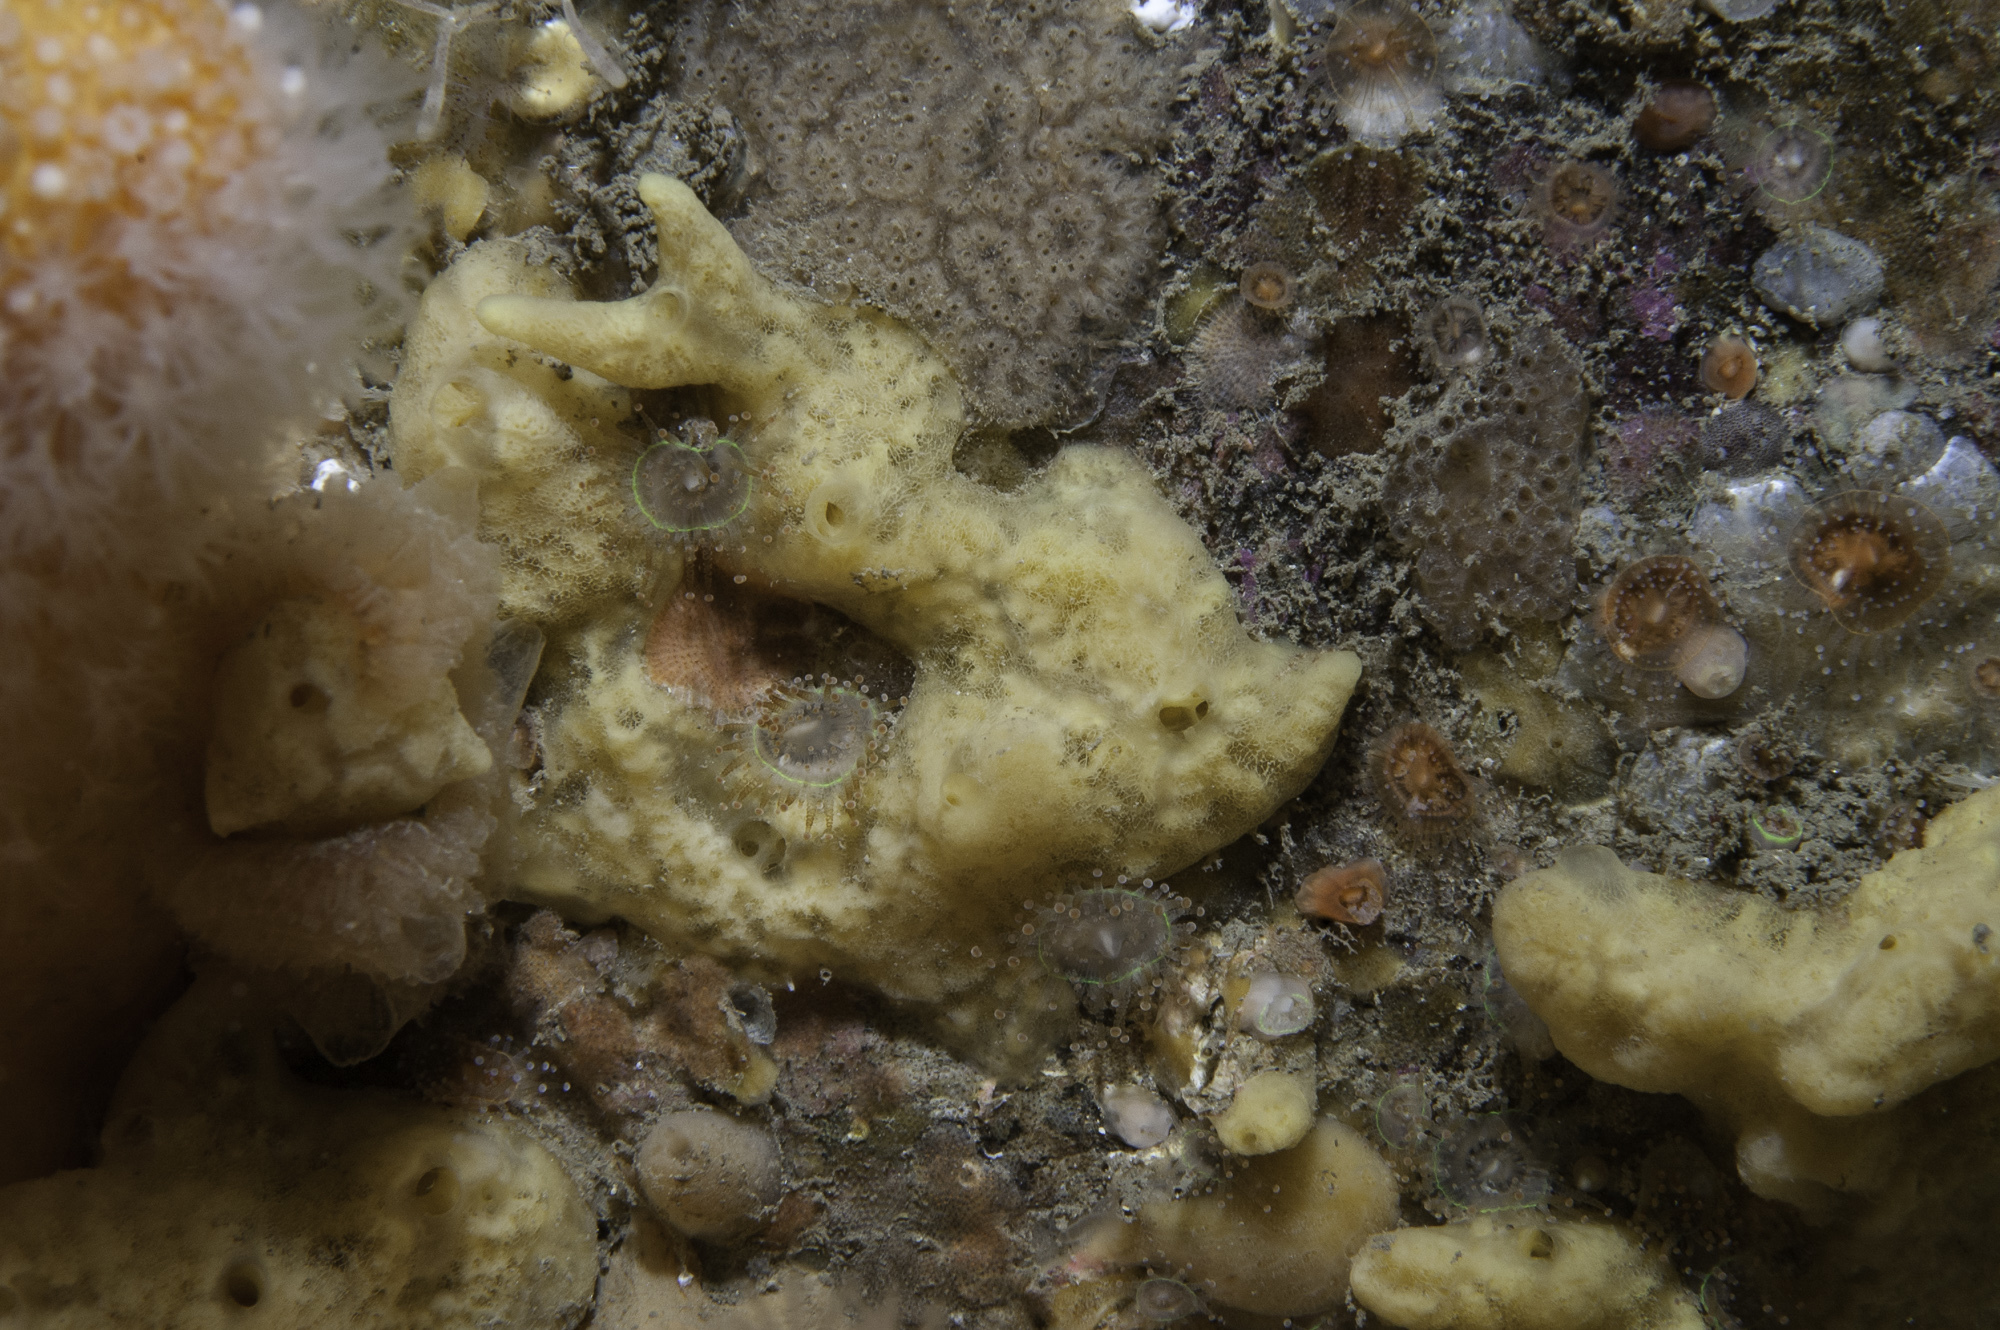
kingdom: Animalia
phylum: Porifera
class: Demospongiae
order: Poecilosclerida
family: Acarnidae
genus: Iophon
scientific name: Iophon nigricans
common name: Yellow-fingered horny sponge
